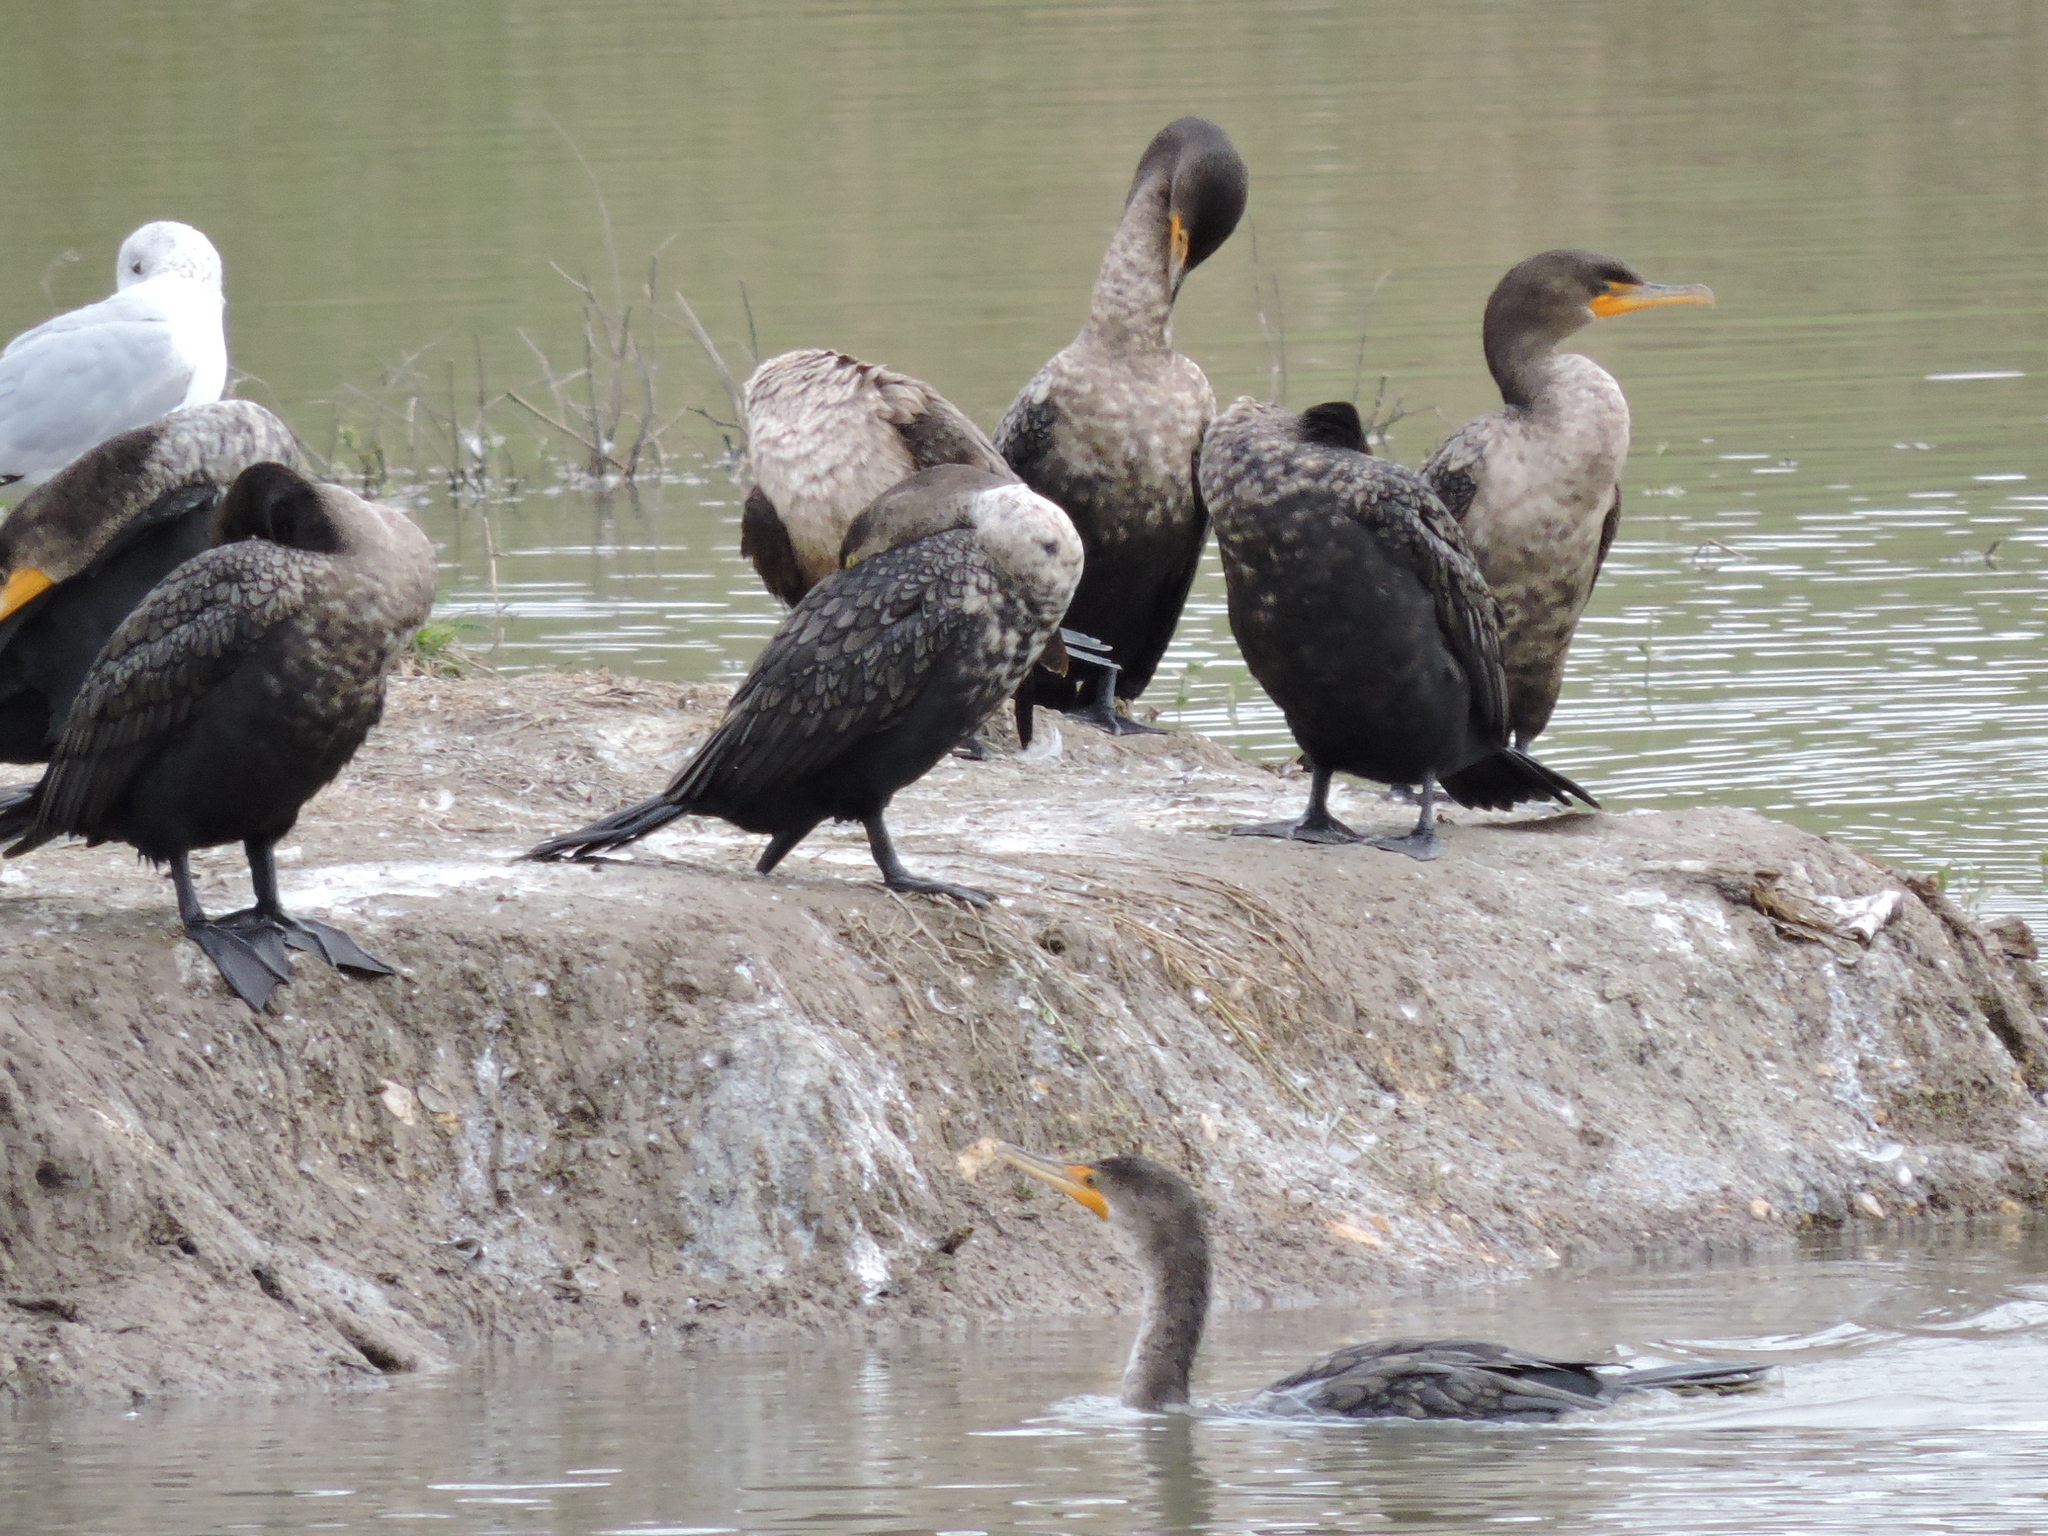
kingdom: Animalia
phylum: Chordata
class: Aves
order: Suliformes
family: Phalacrocoracidae
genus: Phalacrocorax
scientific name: Phalacrocorax auritus
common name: Double-crested cormorant
